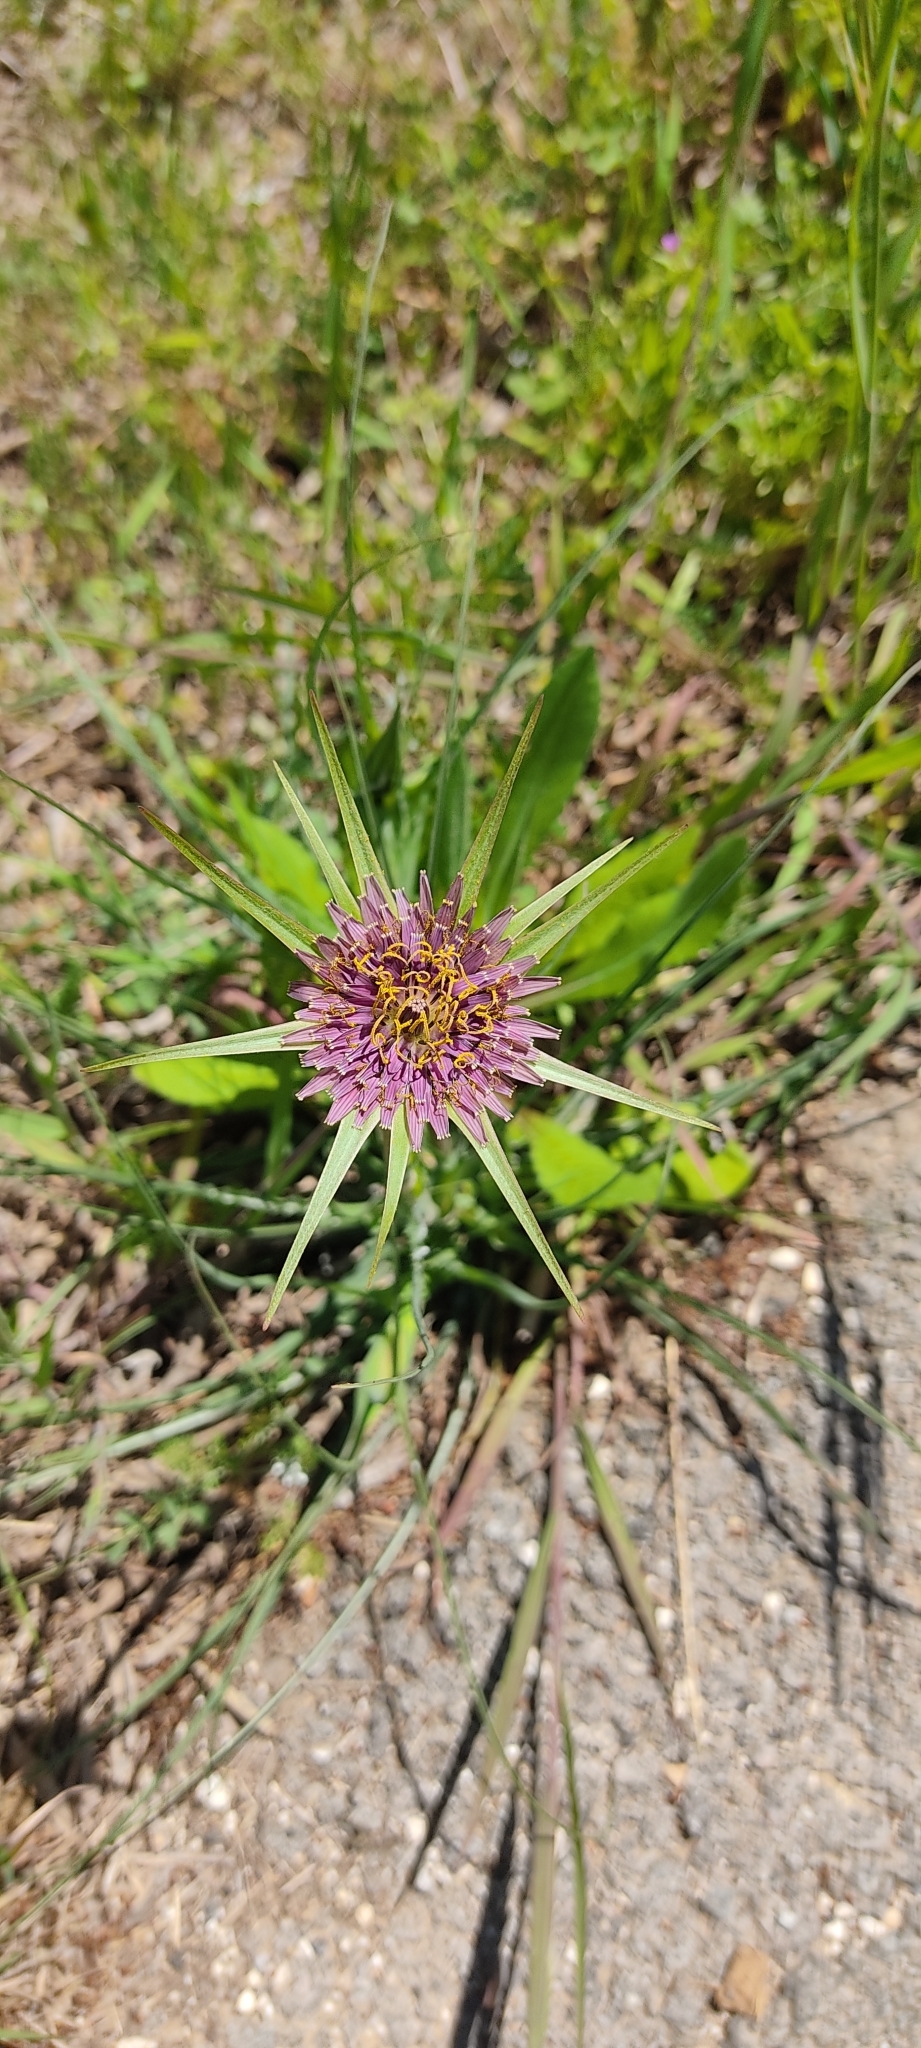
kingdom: Plantae
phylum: Tracheophyta
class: Magnoliopsida
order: Asterales
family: Asteraceae
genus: Tragopogon
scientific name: Tragopogon porrifolius
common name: Salsify
